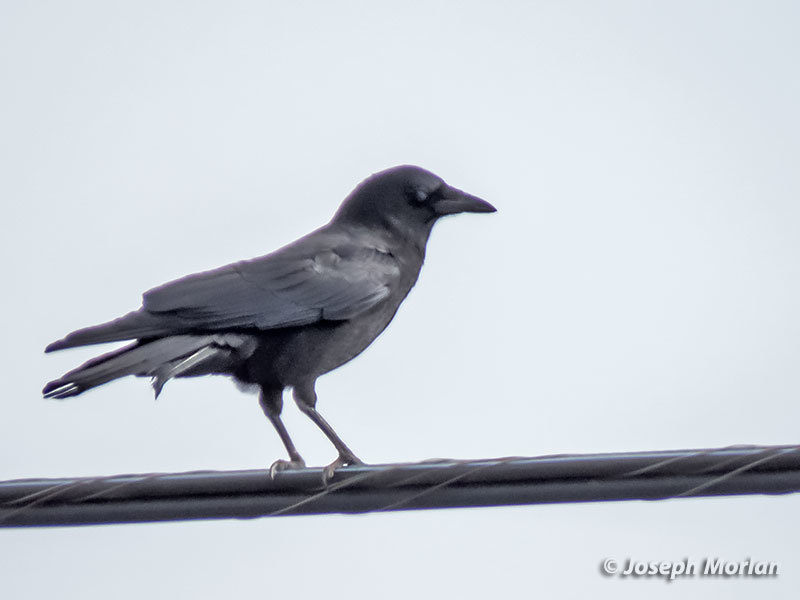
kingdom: Animalia
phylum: Chordata
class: Aves
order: Passeriformes
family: Corvidae
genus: Corvus
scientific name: Corvus brachyrhynchos
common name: American crow
